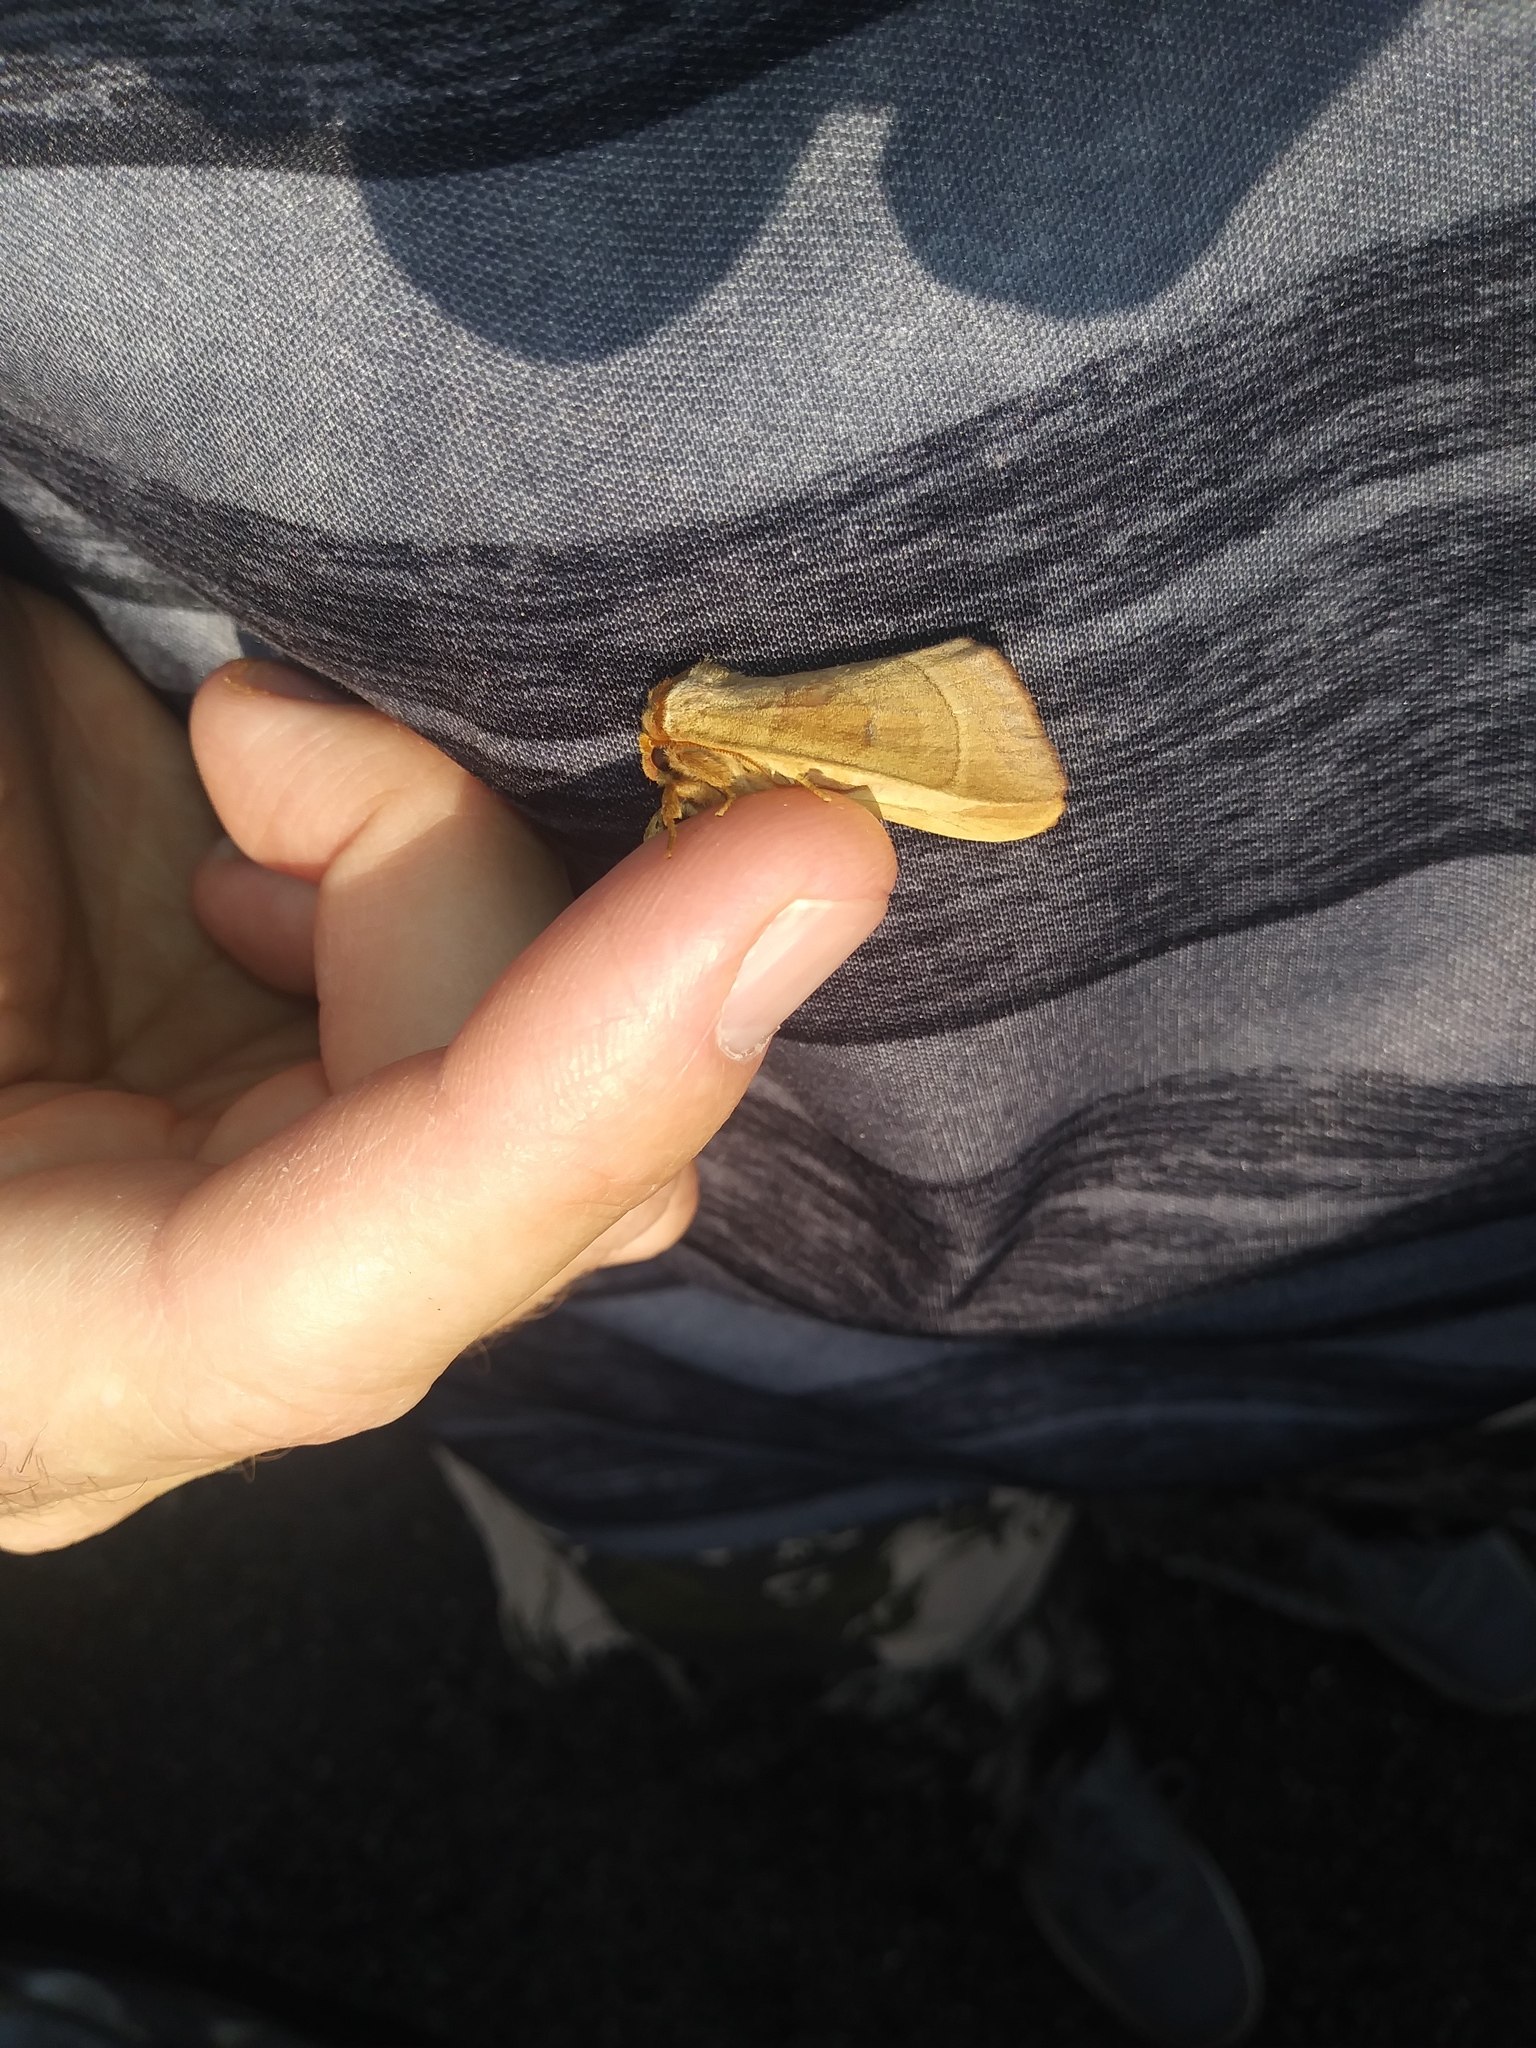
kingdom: Animalia
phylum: Arthropoda
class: Insecta
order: Lepidoptera
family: Notodontidae
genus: Datana
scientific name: Datana integerrima
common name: Walnut caterpillar
